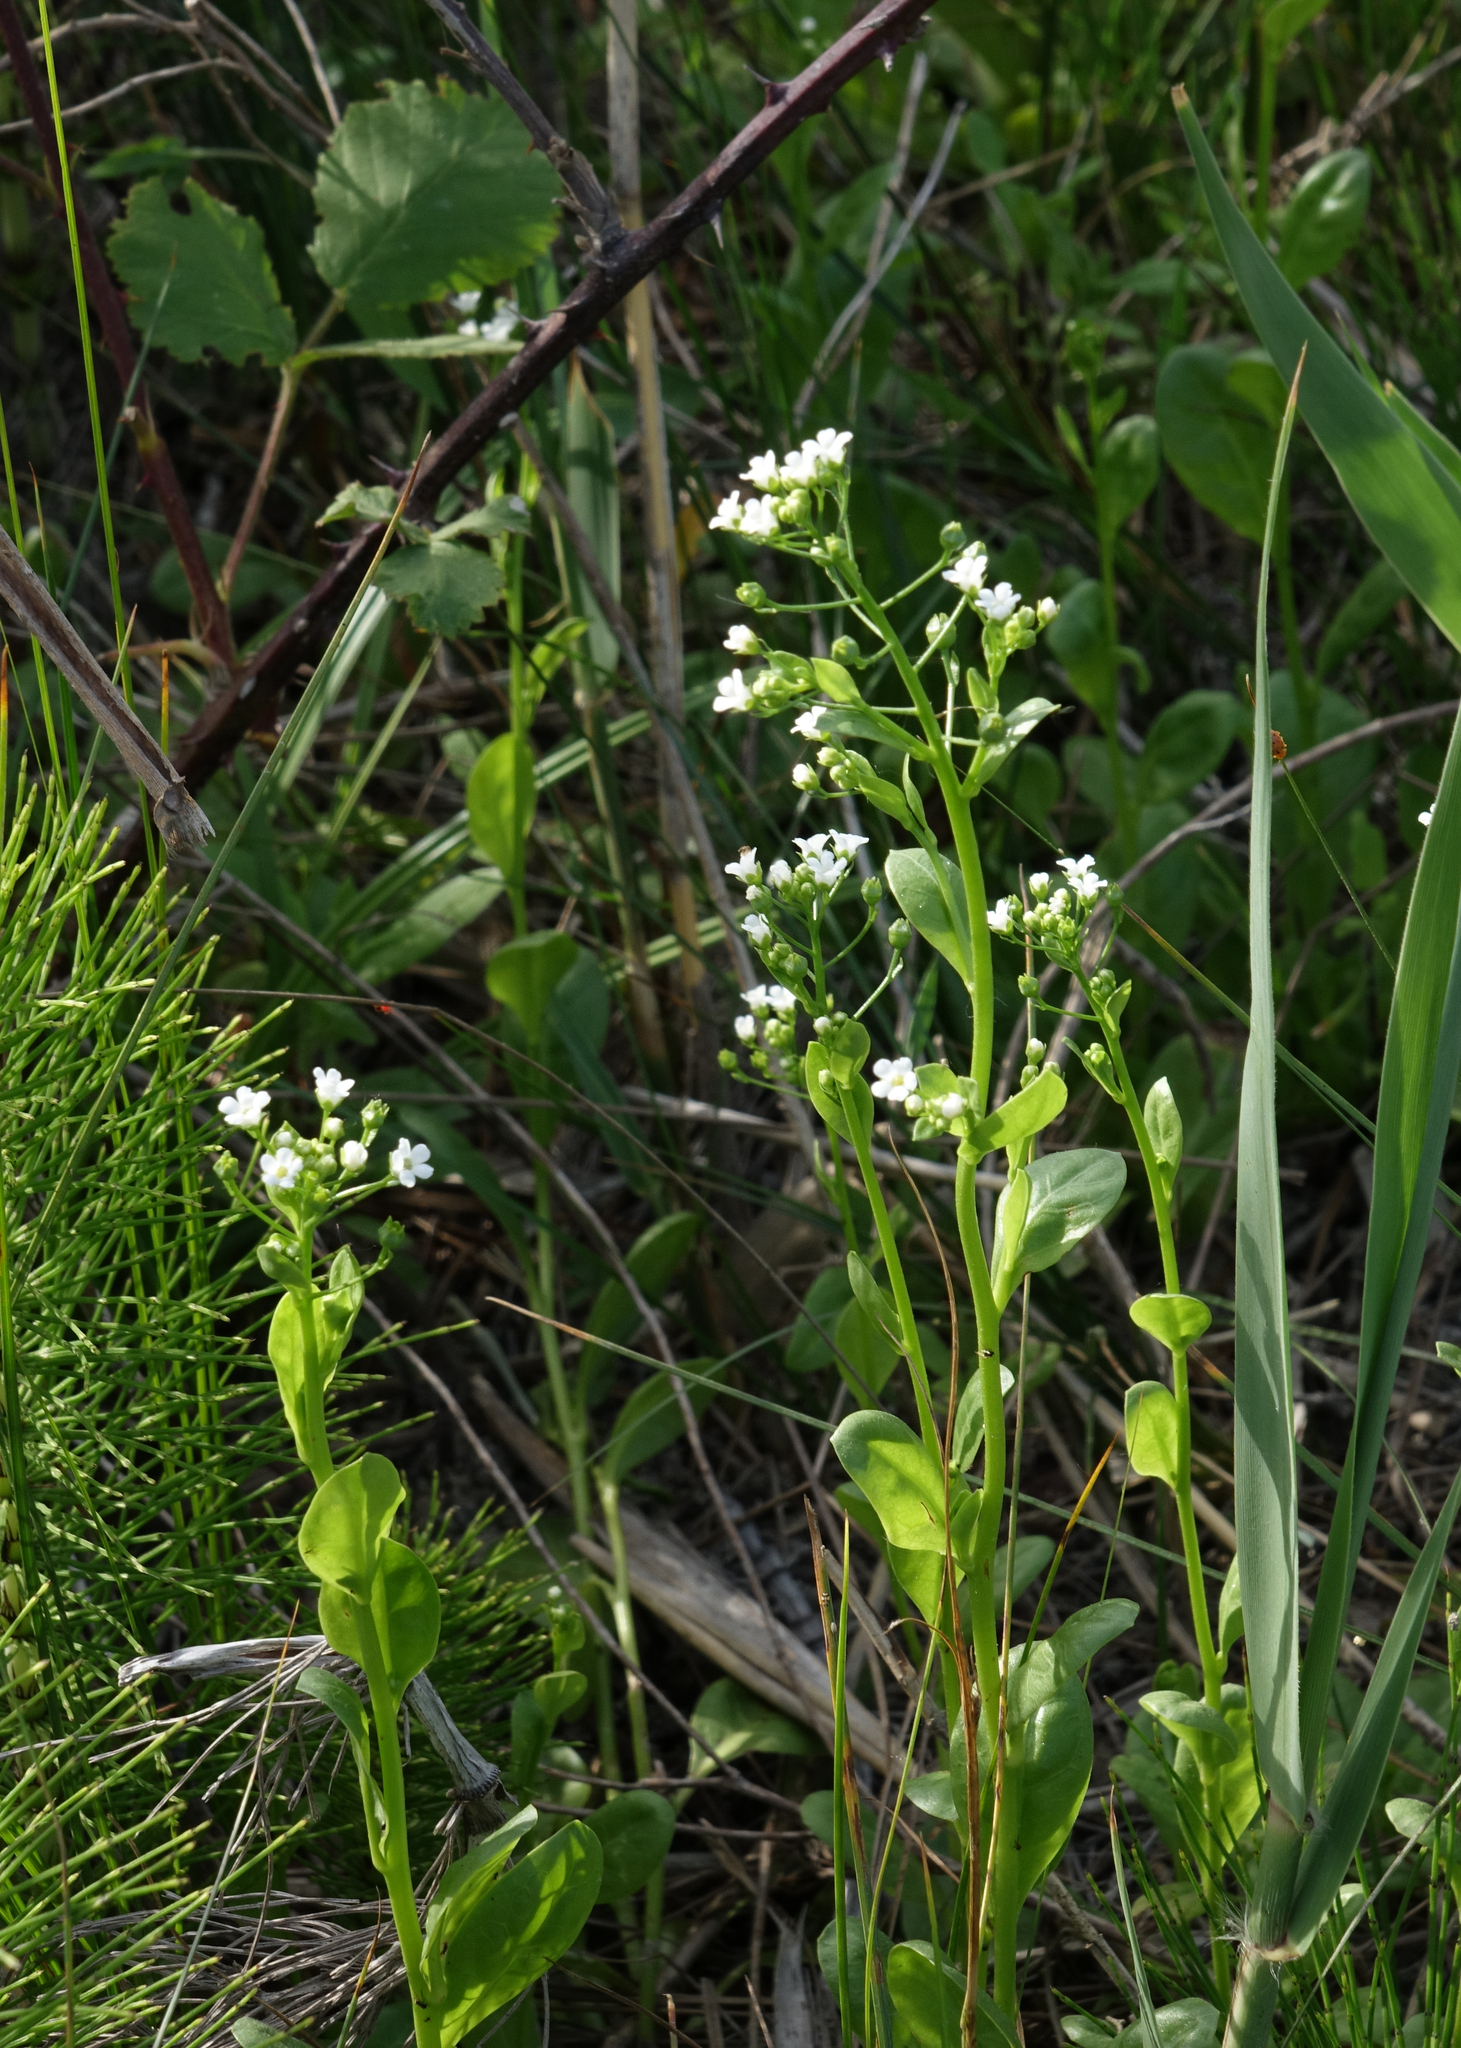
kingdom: Plantae
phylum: Tracheophyta
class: Magnoliopsida
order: Ericales
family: Primulaceae
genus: Samolus
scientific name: Samolus valerandi
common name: Brookweed
